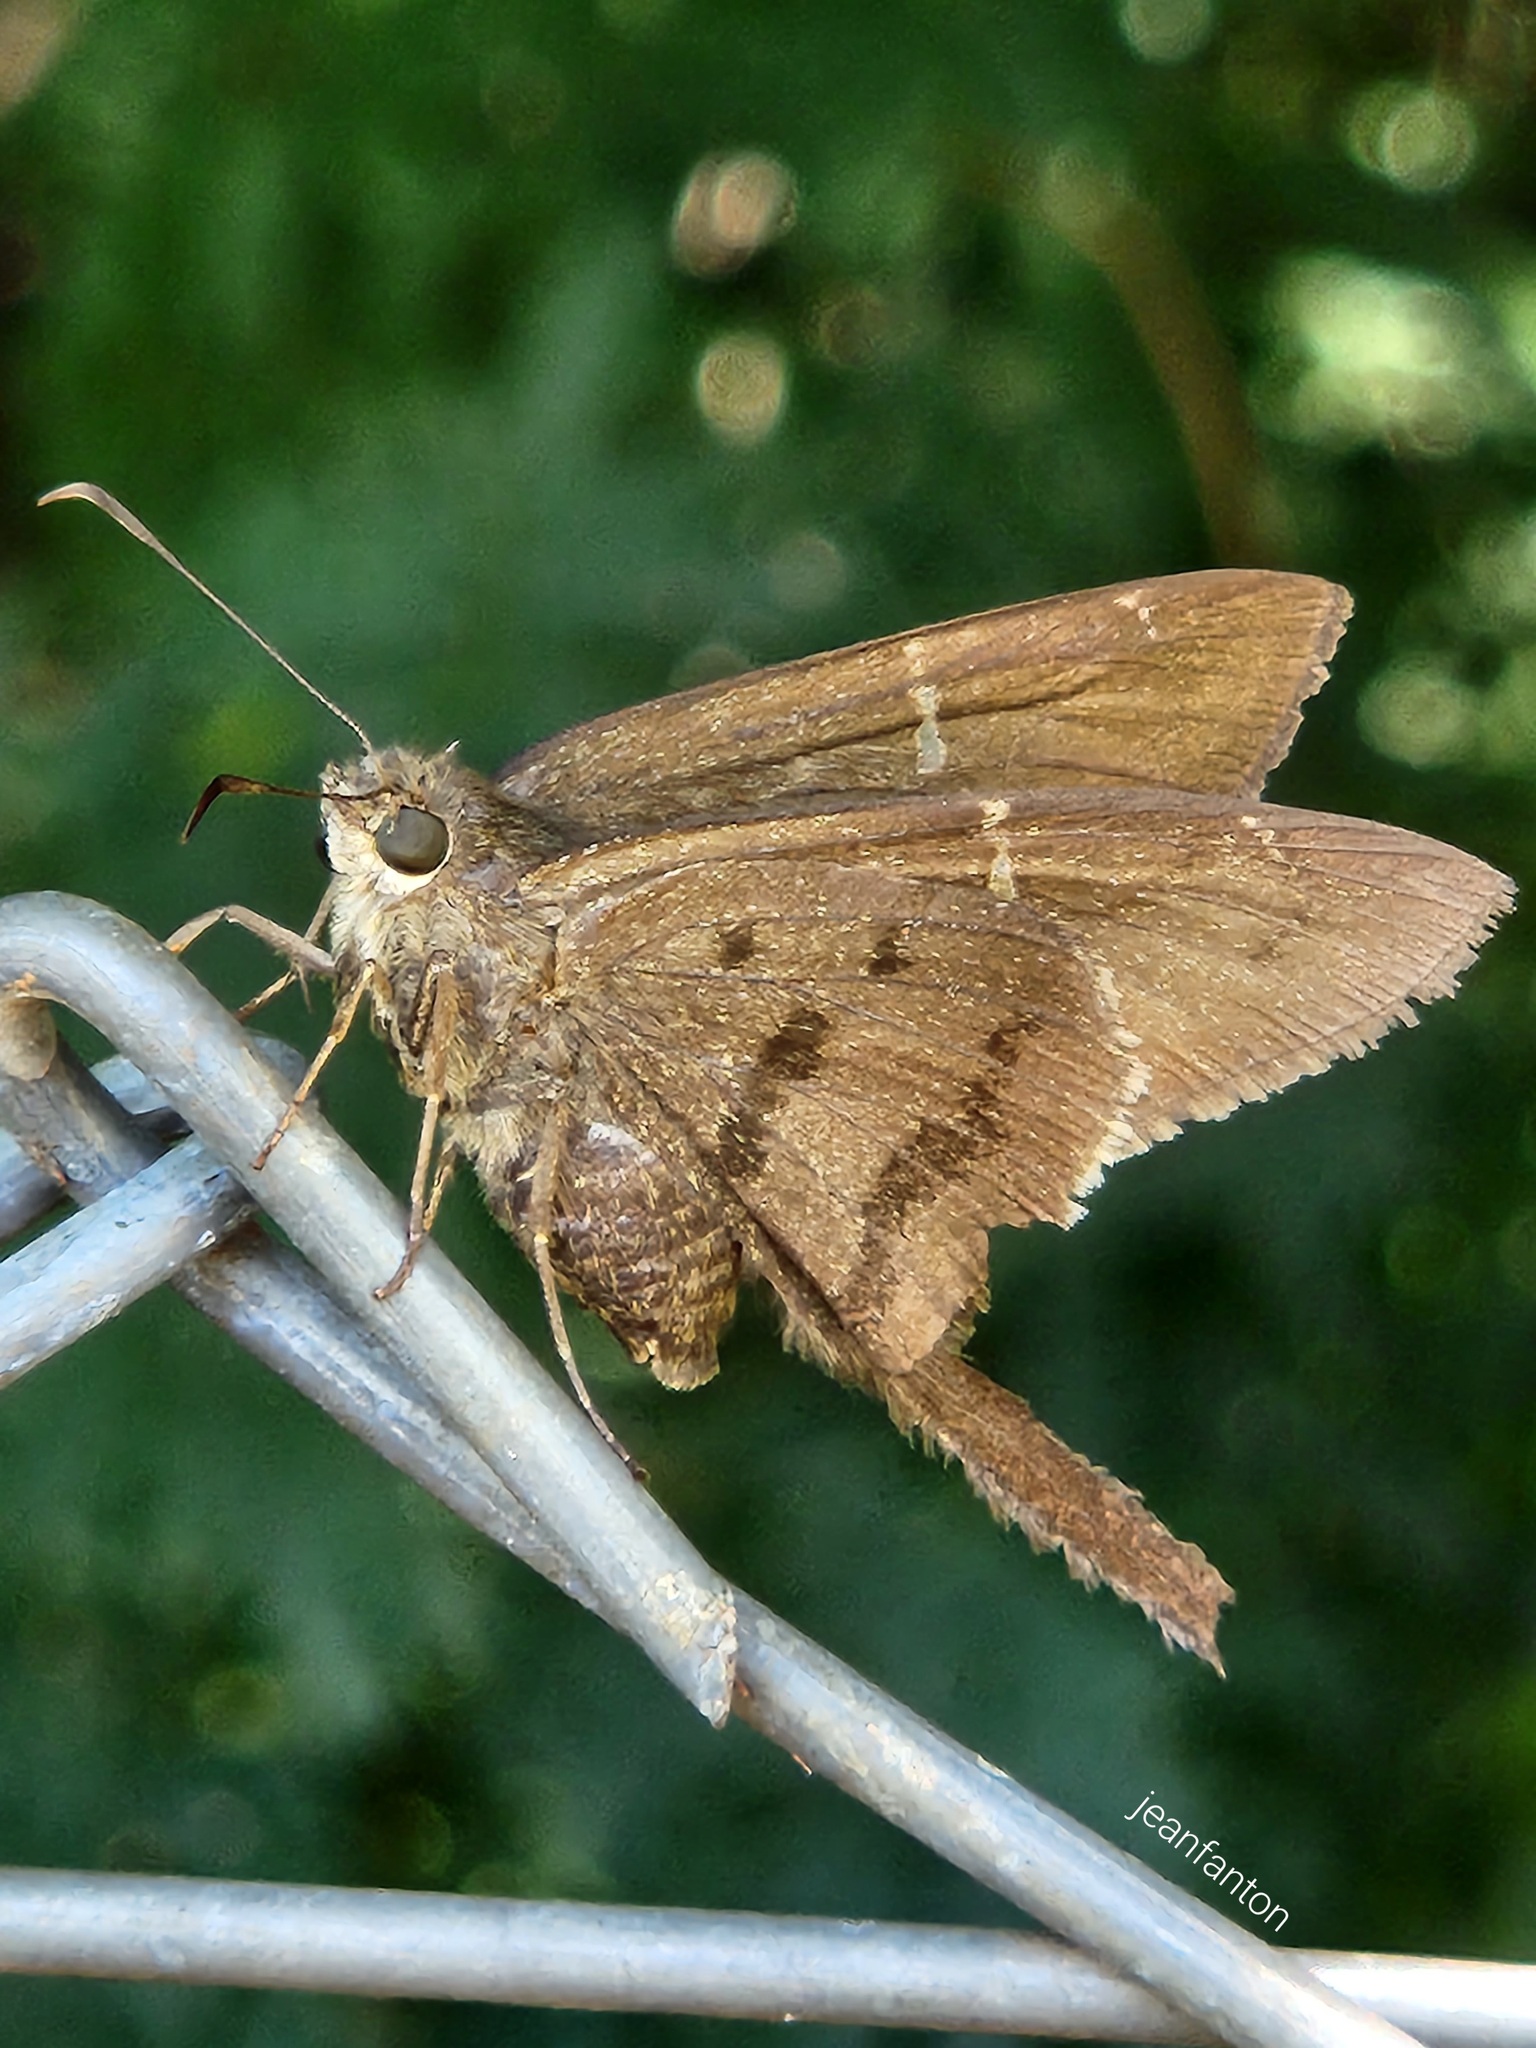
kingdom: Animalia
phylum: Arthropoda
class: Insecta
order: Lepidoptera
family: Hesperiidae
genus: Urbanus
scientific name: Urbanus procne
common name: Brown longtail
